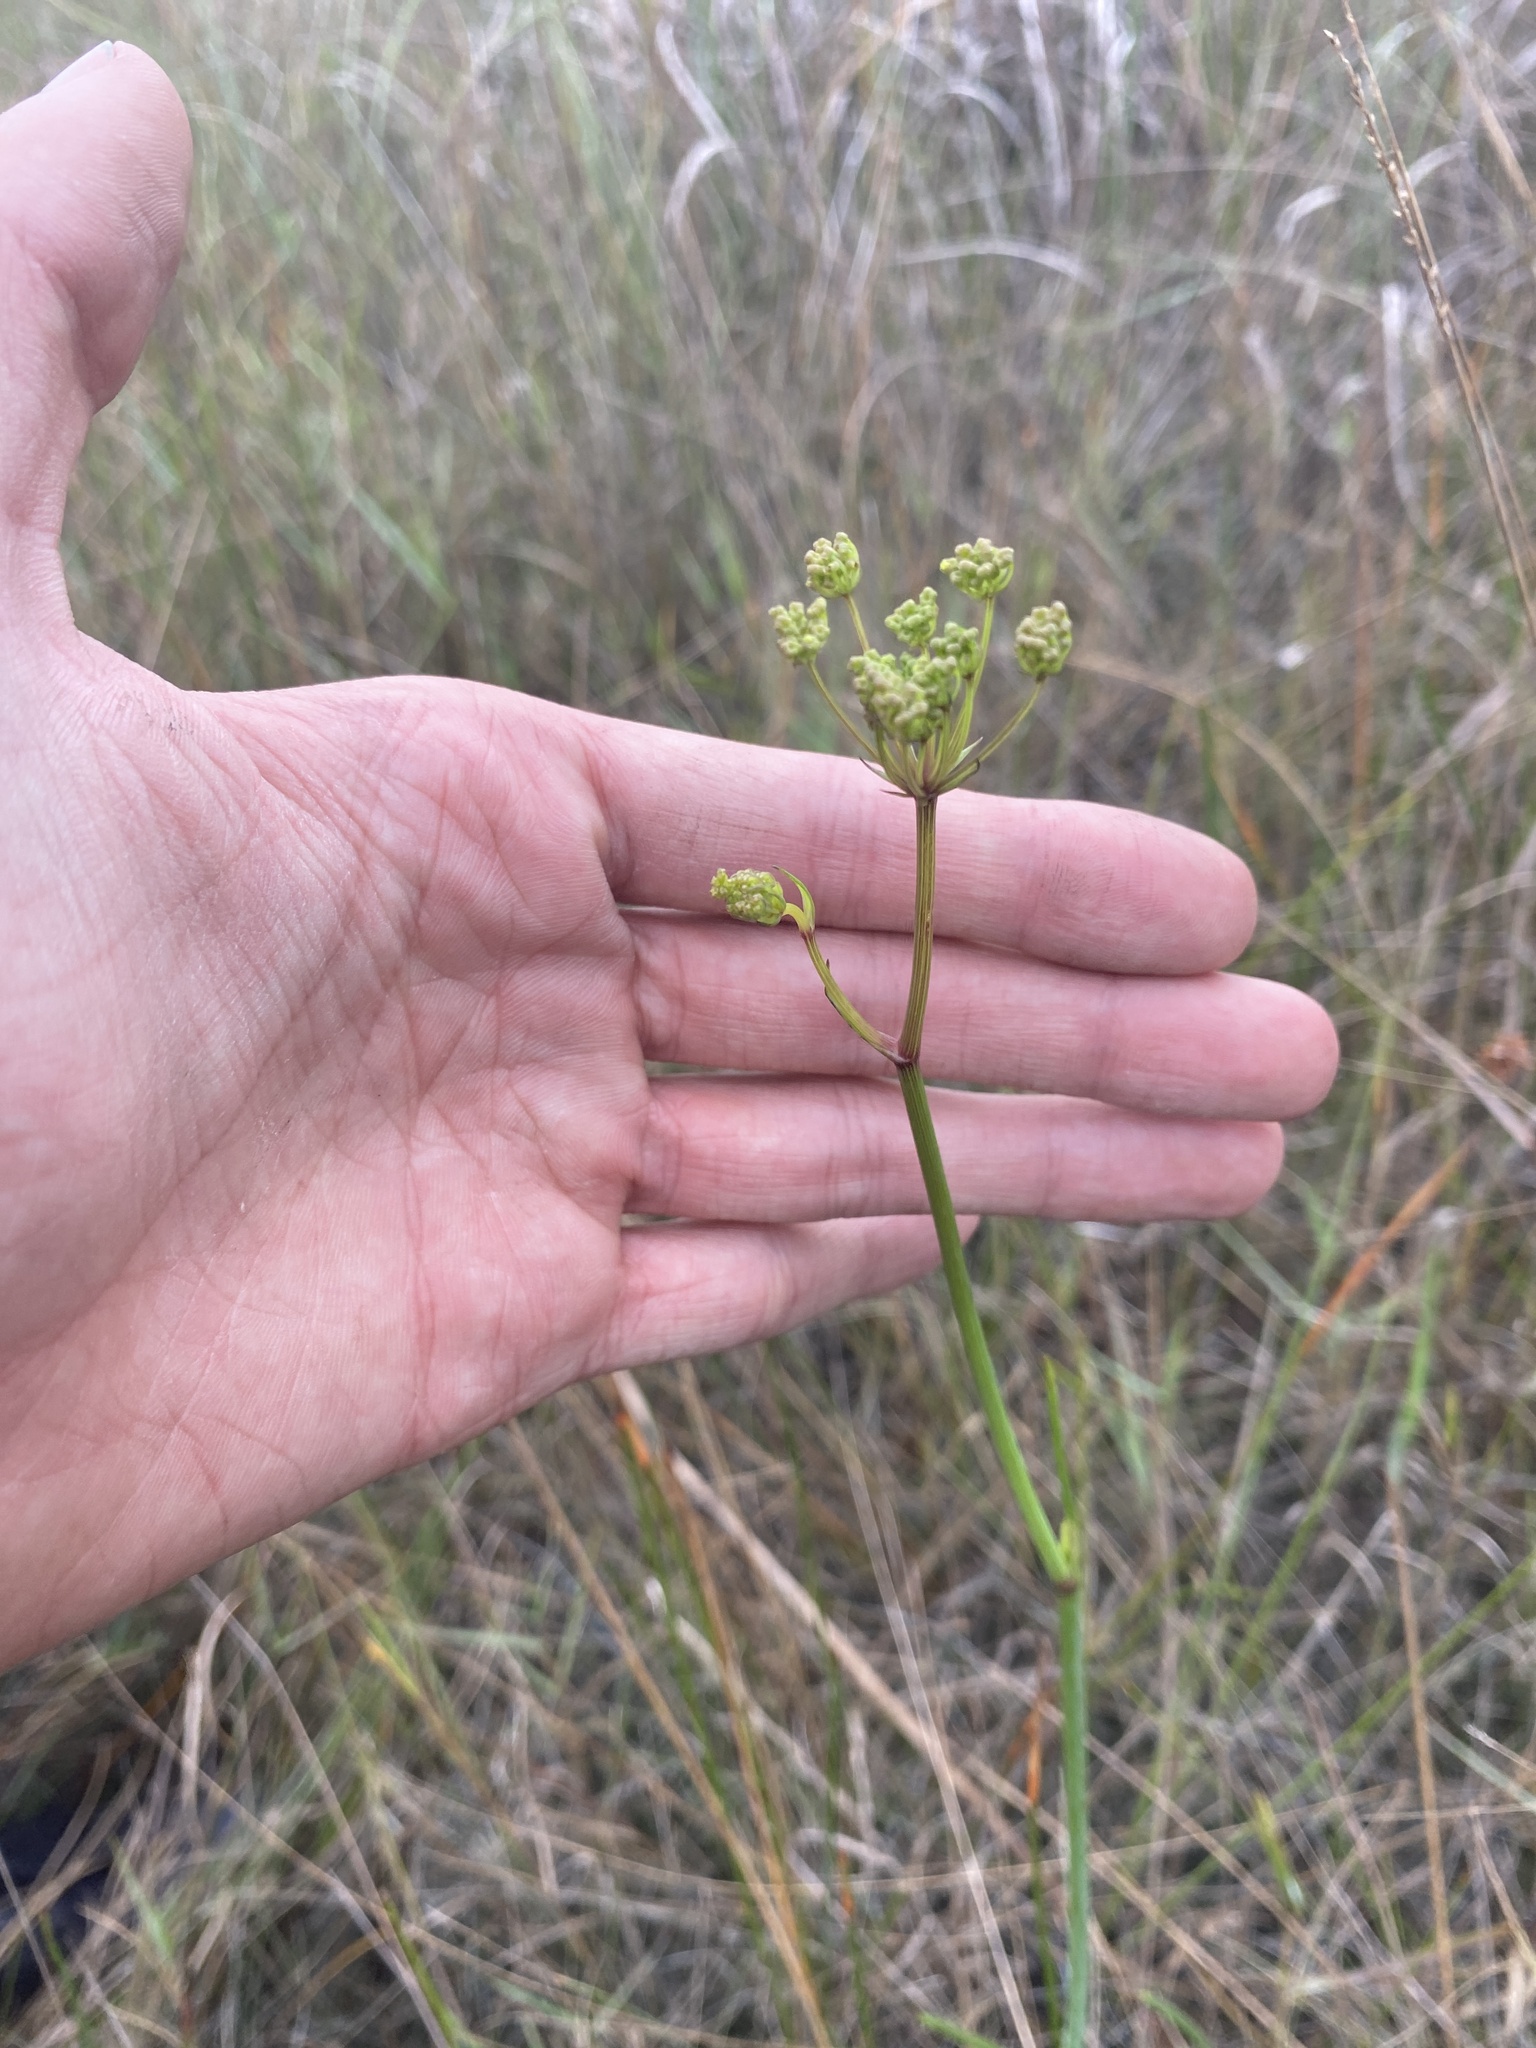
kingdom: Plantae
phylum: Tracheophyta
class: Magnoliopsida
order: Apiales
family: Apiaceae
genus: Tiedemannia
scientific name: Tiedemannia filiformis
